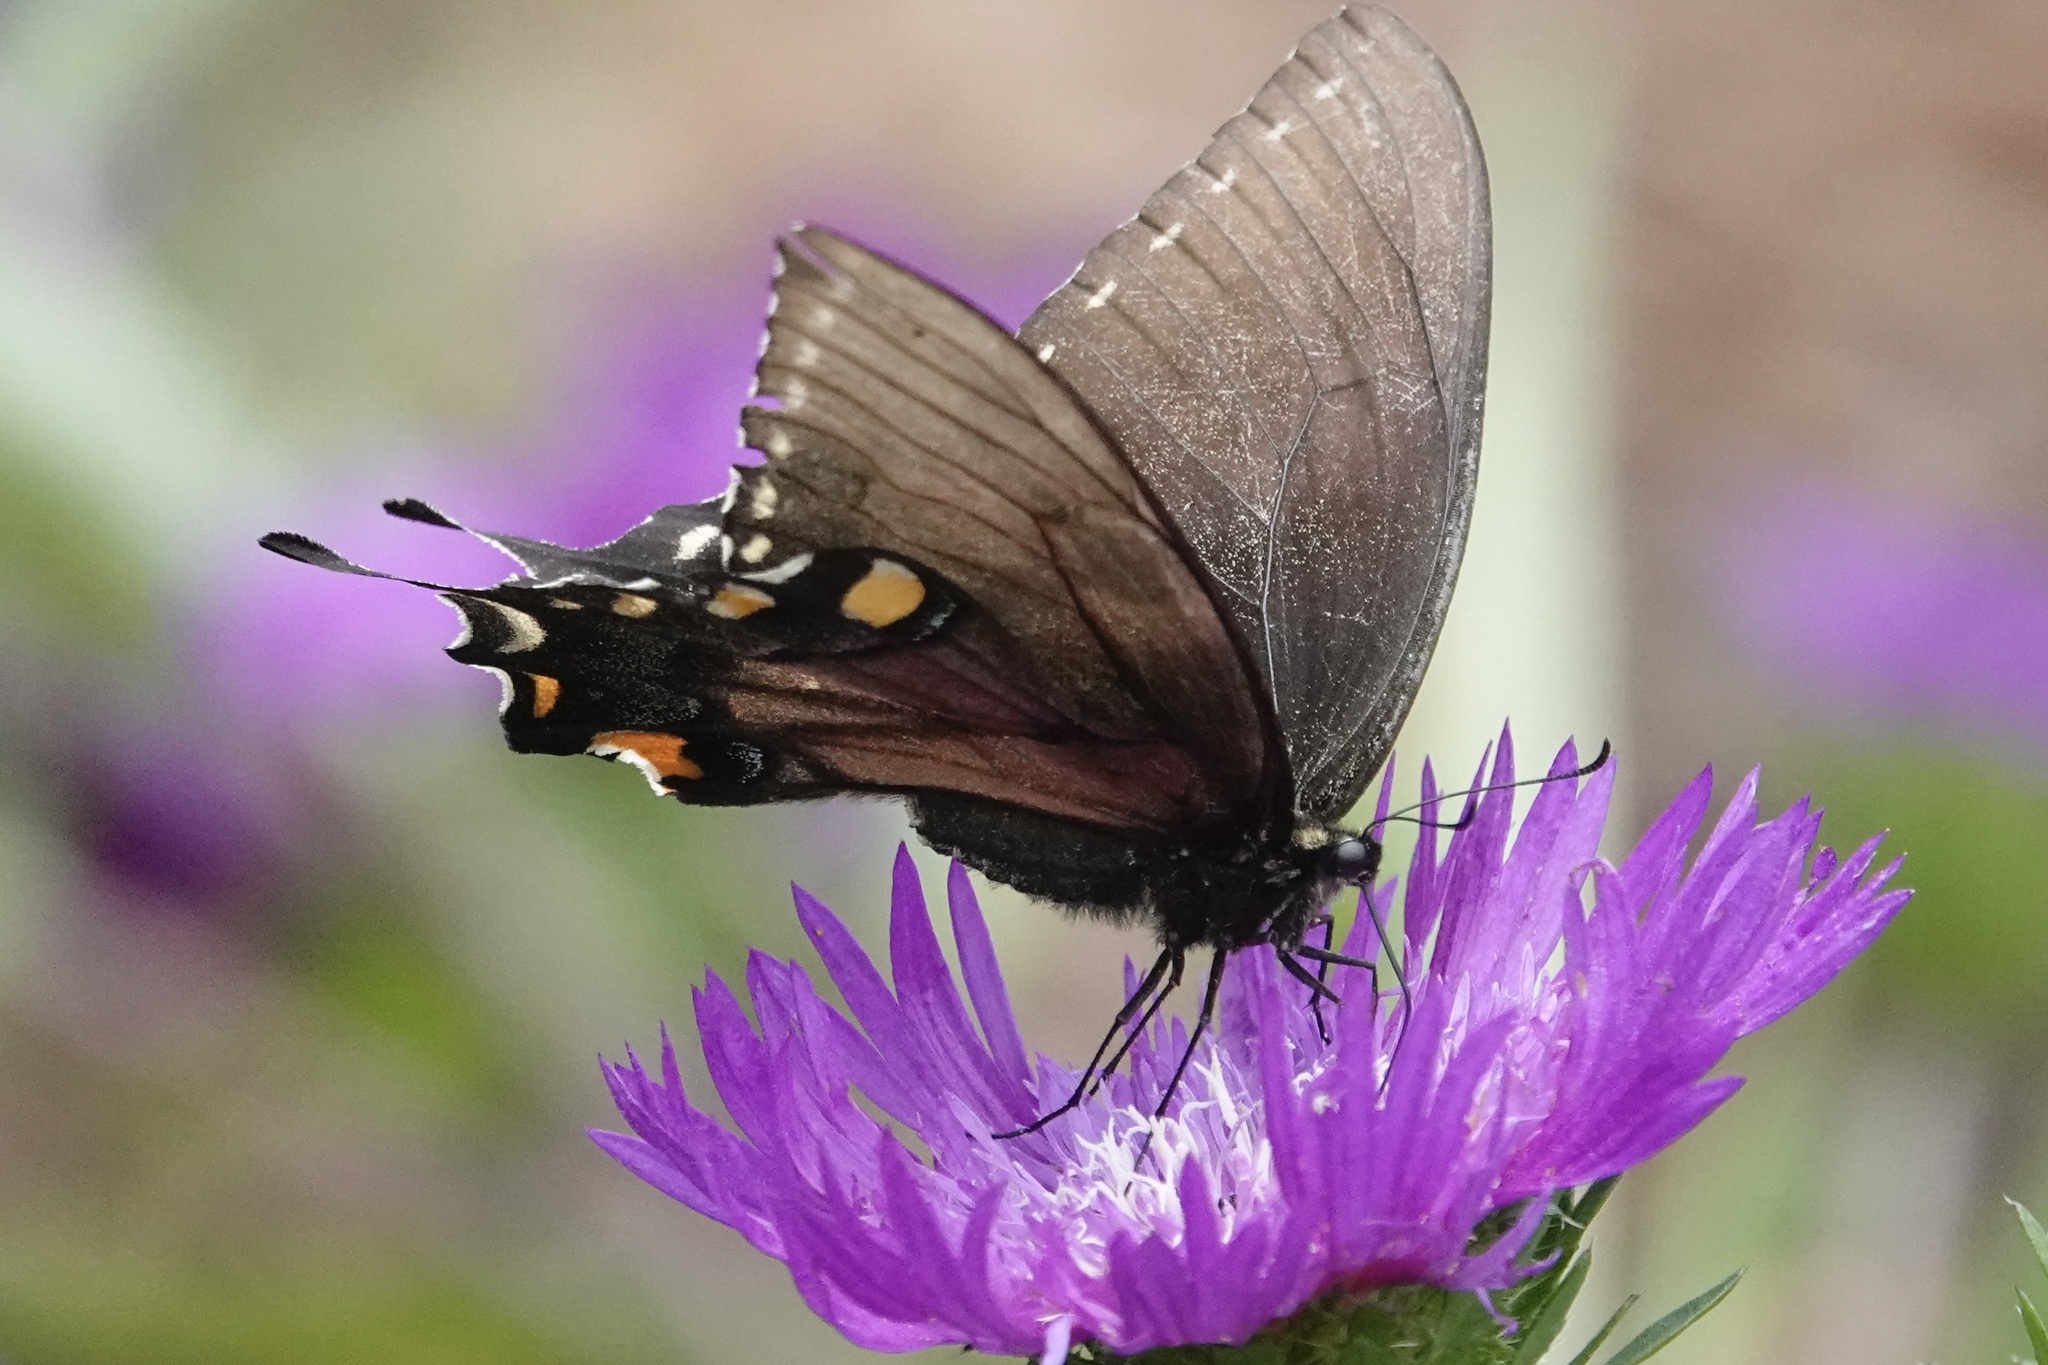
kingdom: Animalia
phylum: Arthropoda
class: Insecta
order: Lepidoptera
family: Papilionidae
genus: Papilio
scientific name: Papilio glaucus
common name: Tiger swallowtail
